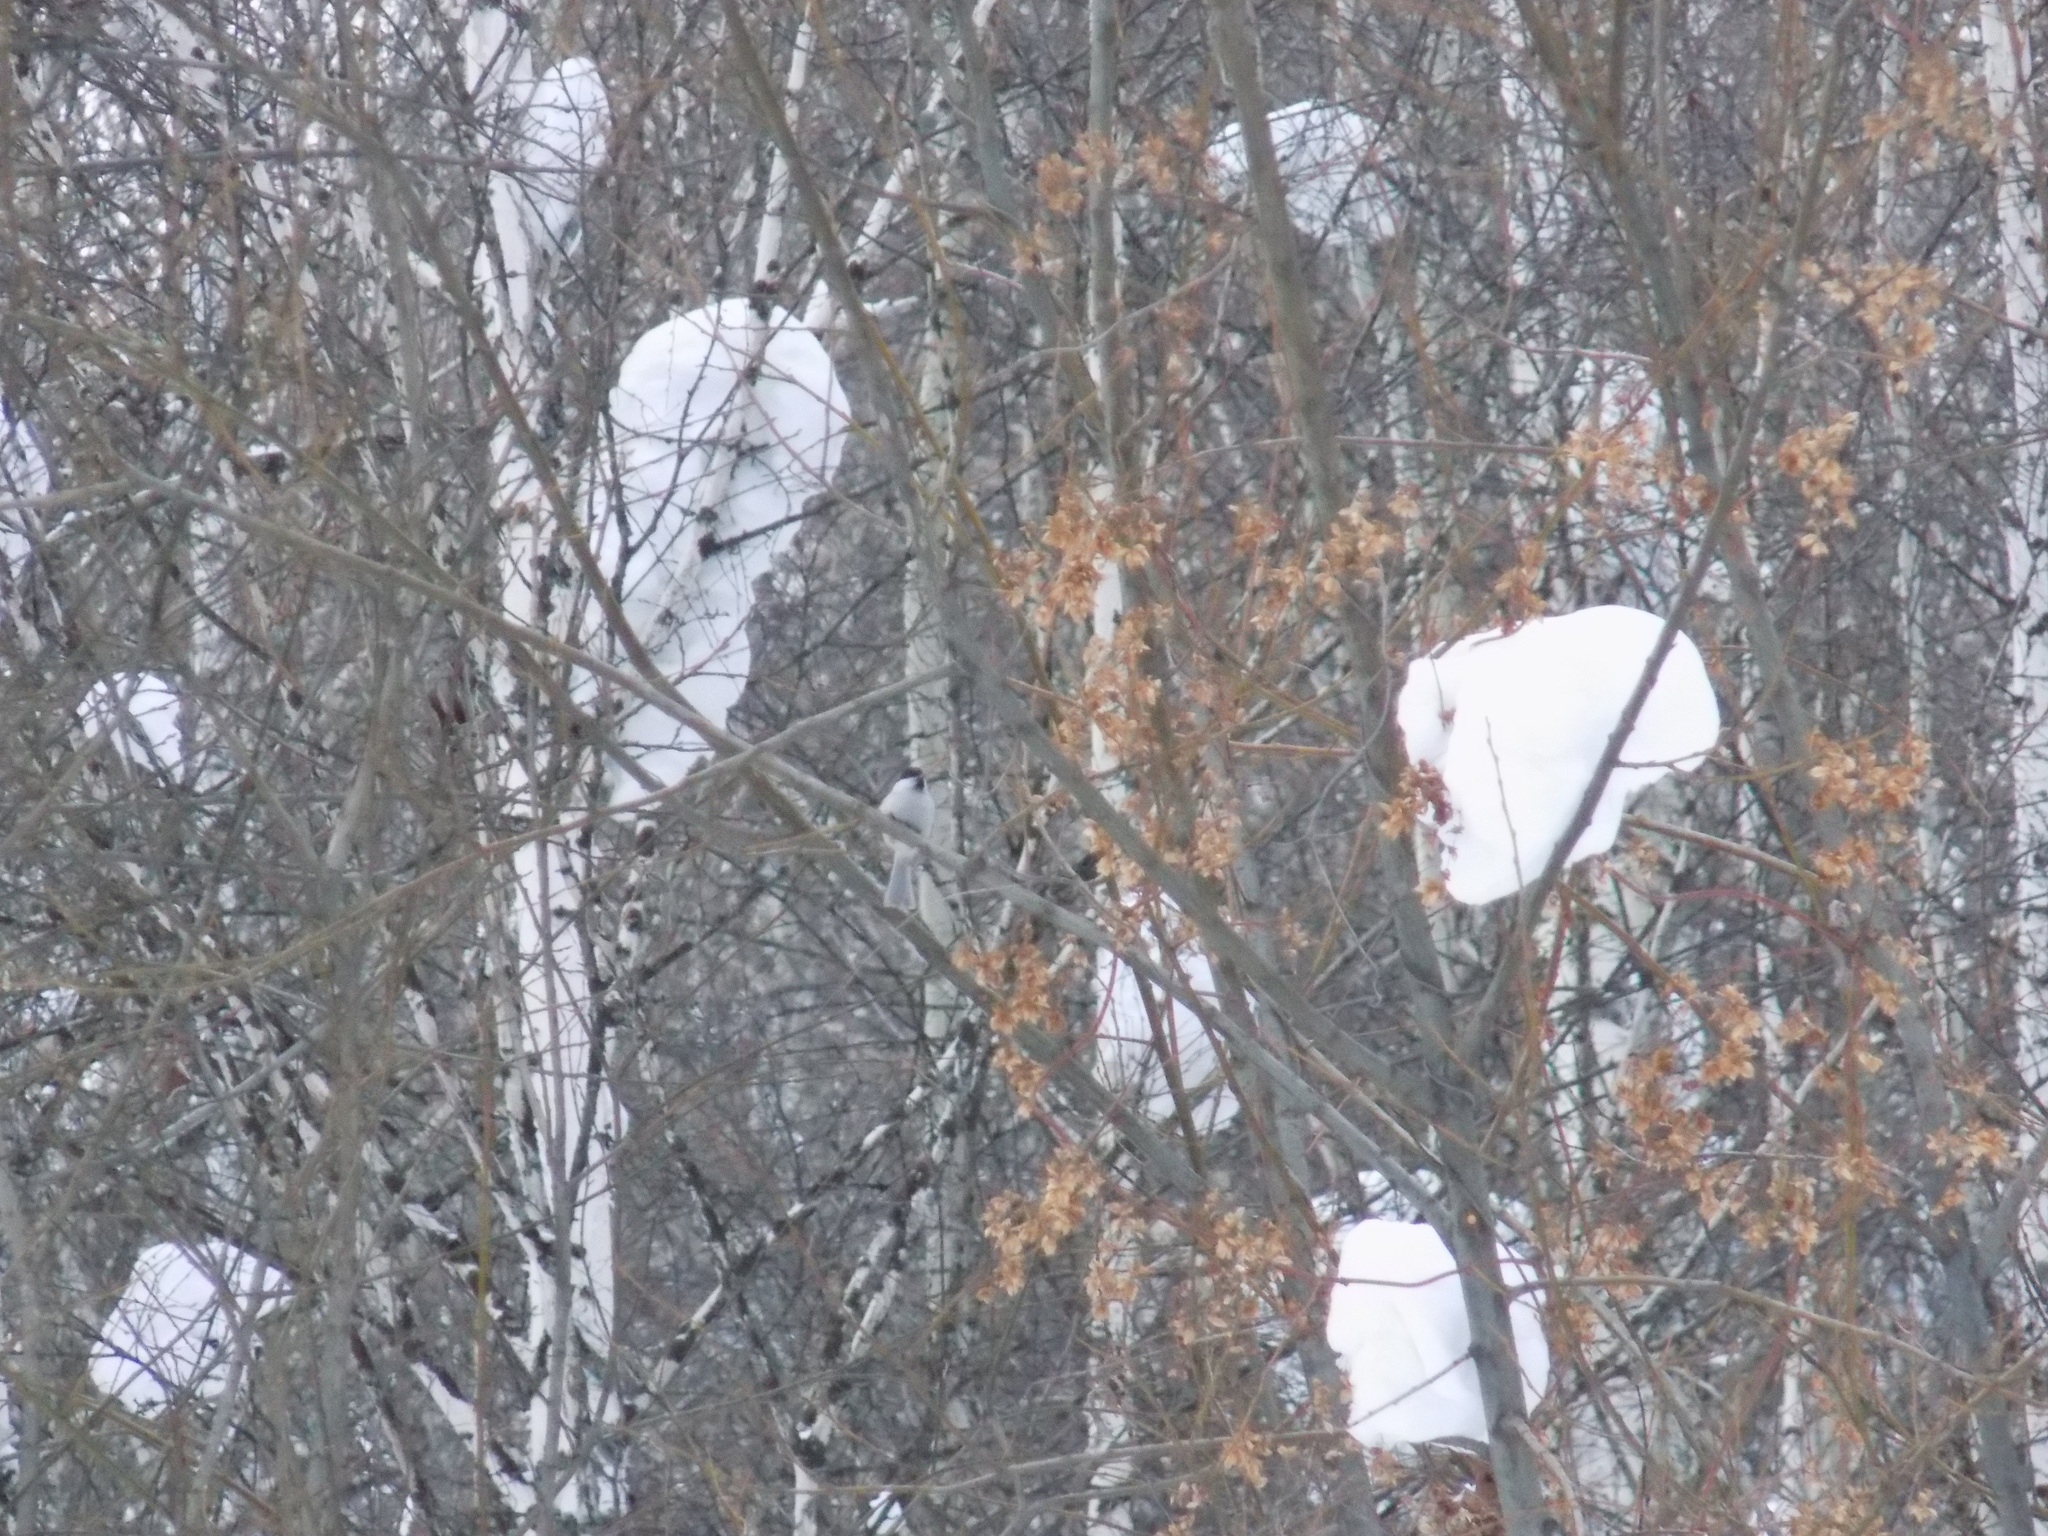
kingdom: Animalia
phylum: Chordata
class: Aves
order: Passeriformes
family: Paridae
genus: Poecile
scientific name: Poecile palustris
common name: Marsh tit
